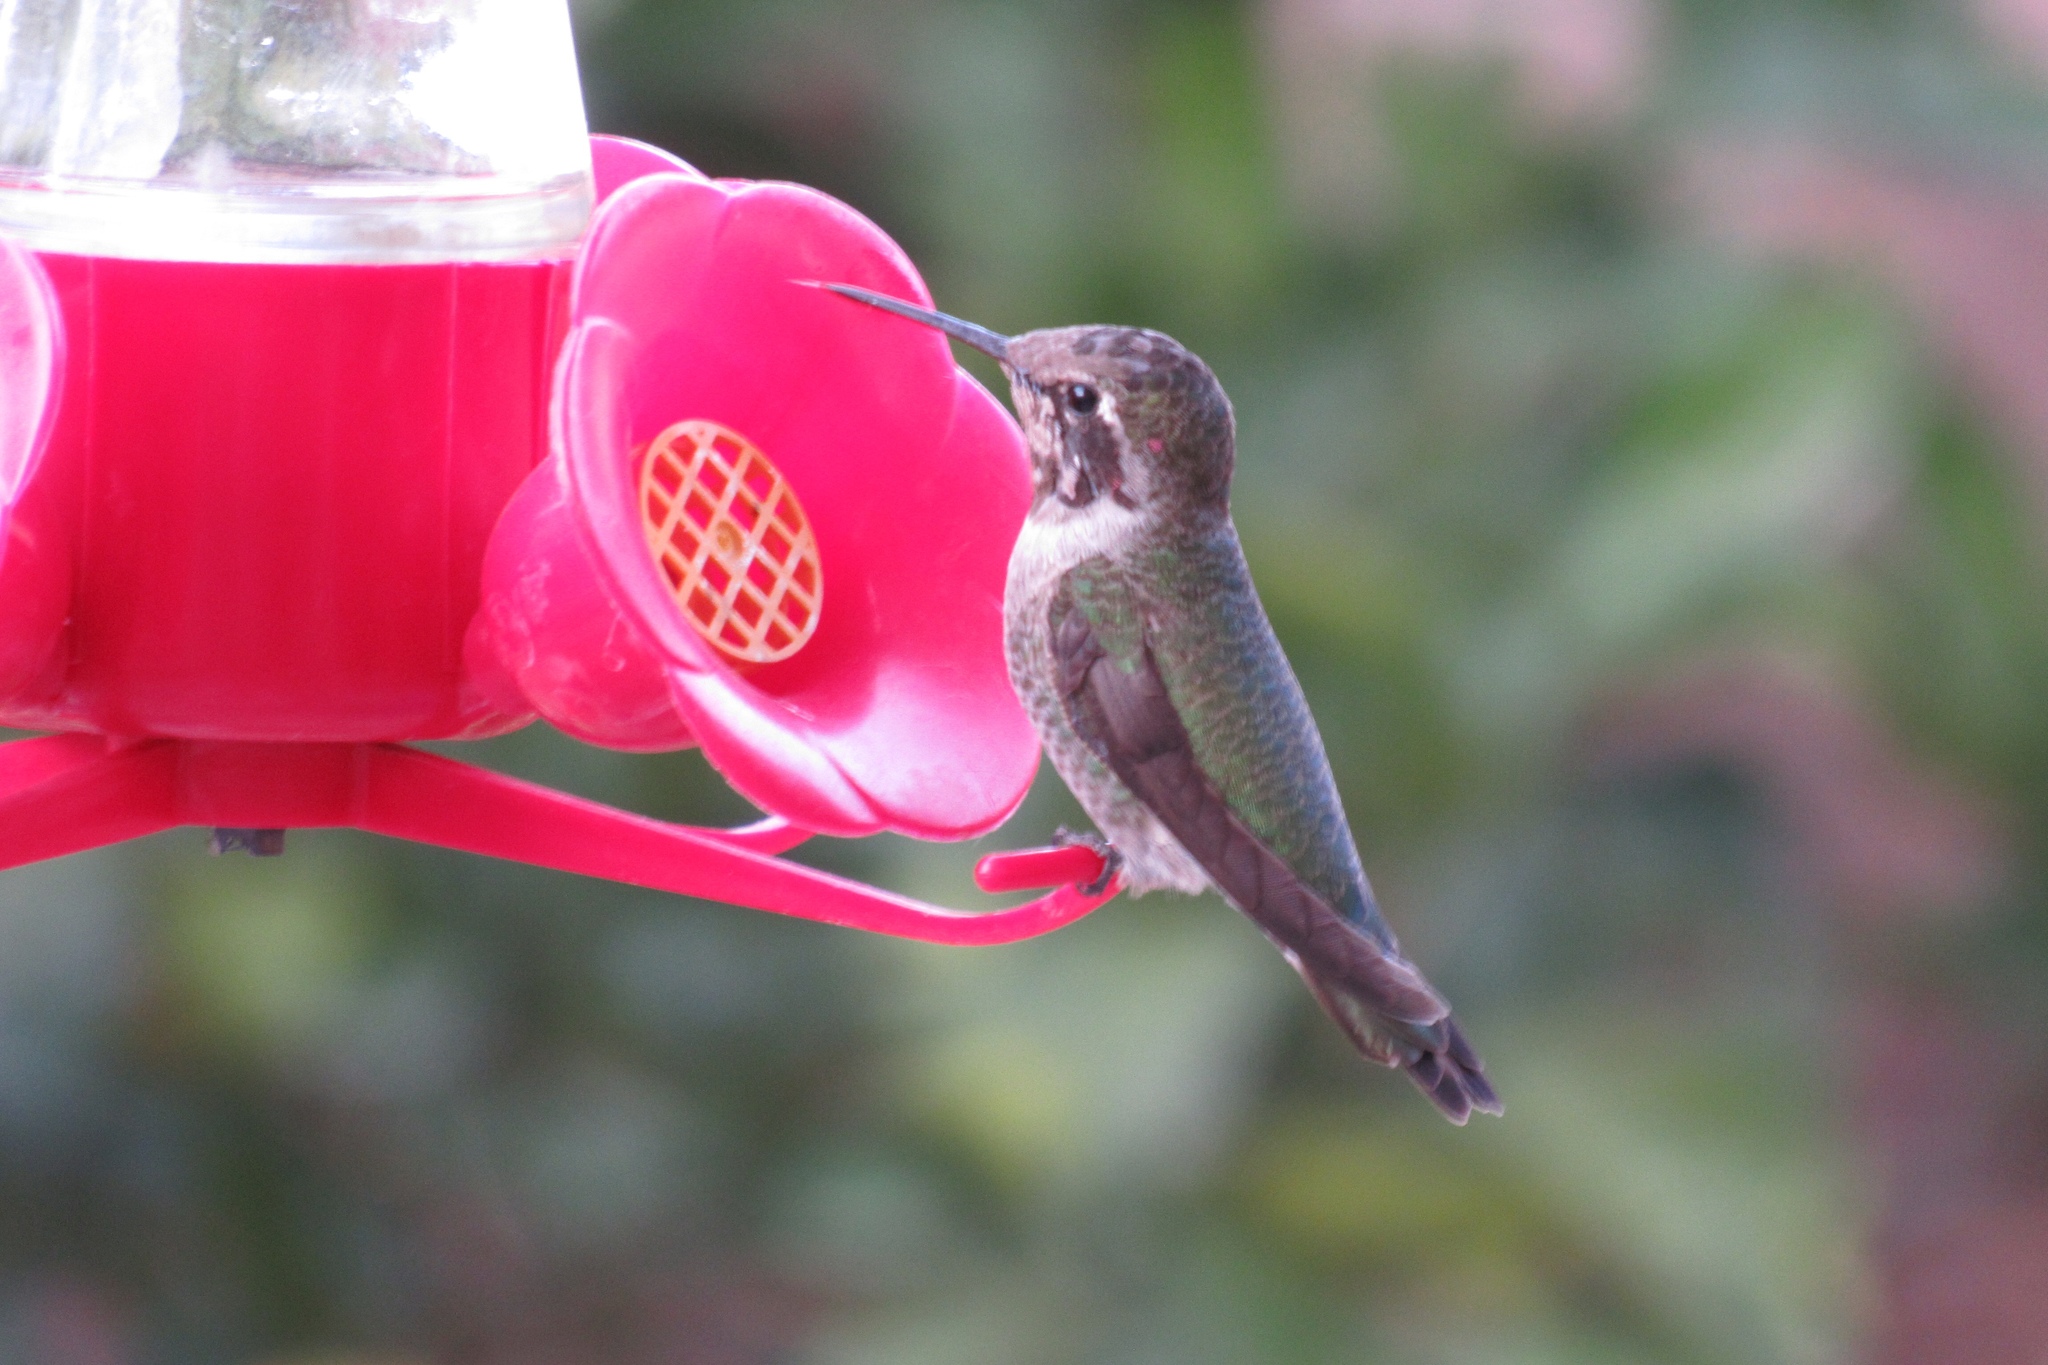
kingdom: Animalia
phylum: Chordata
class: Aves
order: Apodiformes
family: Trochilidae
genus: Calypte
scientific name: Calypte anna
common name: Anna's hummingbird
